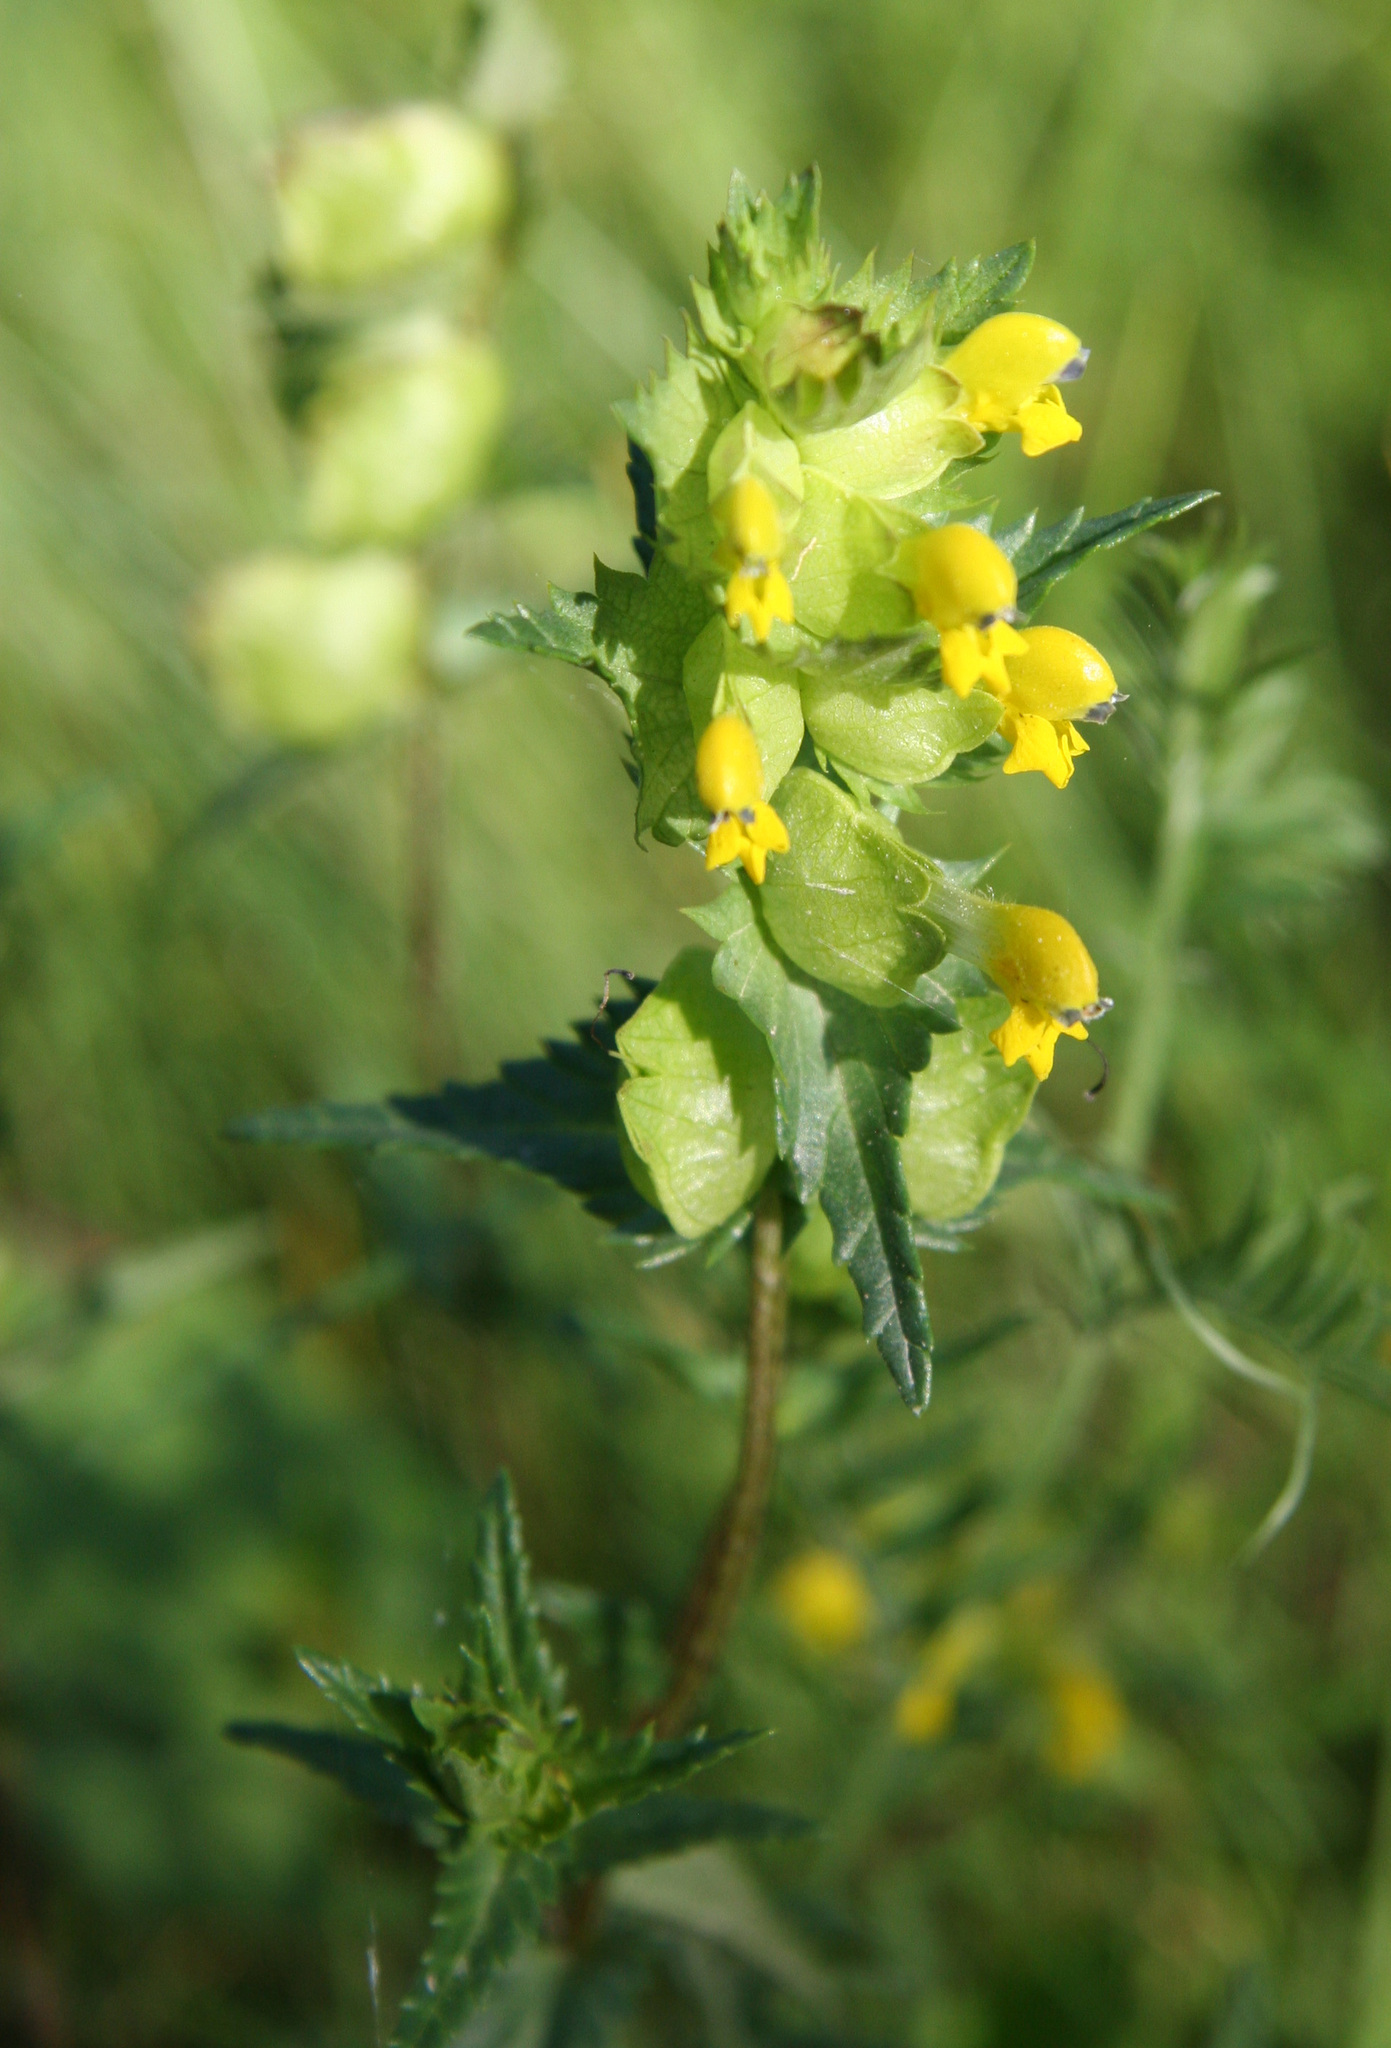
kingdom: Plantae
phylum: Tracheophyta
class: Magnoliopsida
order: Lamiales
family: Orobanchaceae
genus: Rhinanthus
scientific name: Rhinanthus minor
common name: Yellow-rattle
